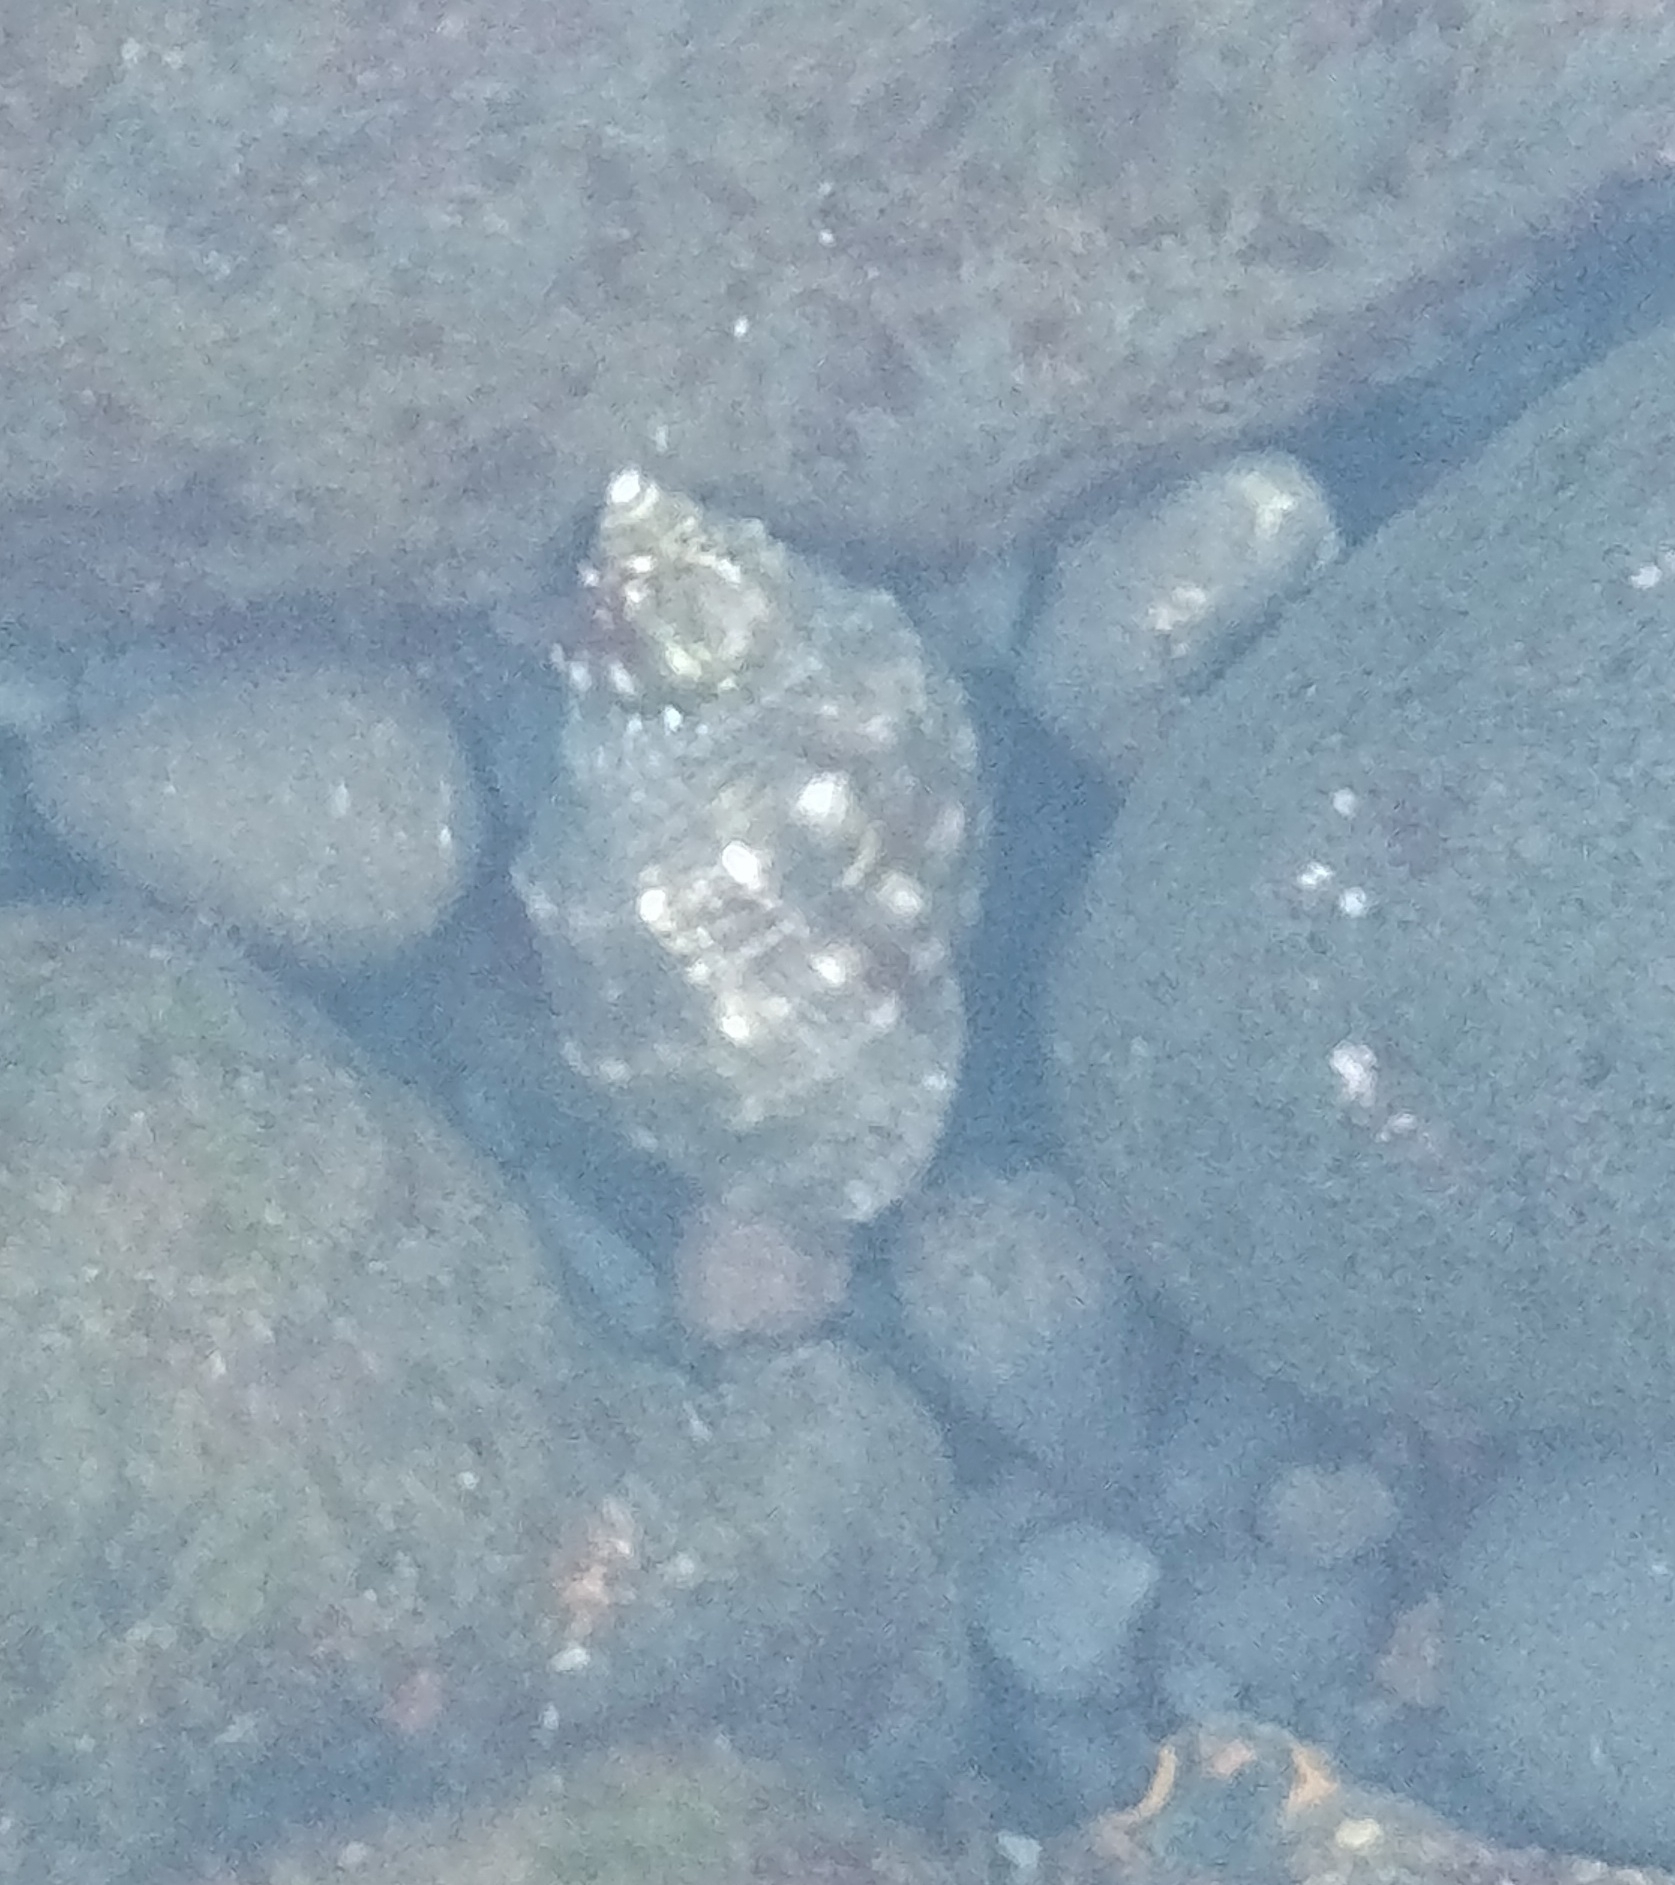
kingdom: Animalia
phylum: Mollusca
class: Gastropoda
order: Neogastropoda
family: Muricidae
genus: Stramonita
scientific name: Stramonita haemastoma
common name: Florida dog winkle
